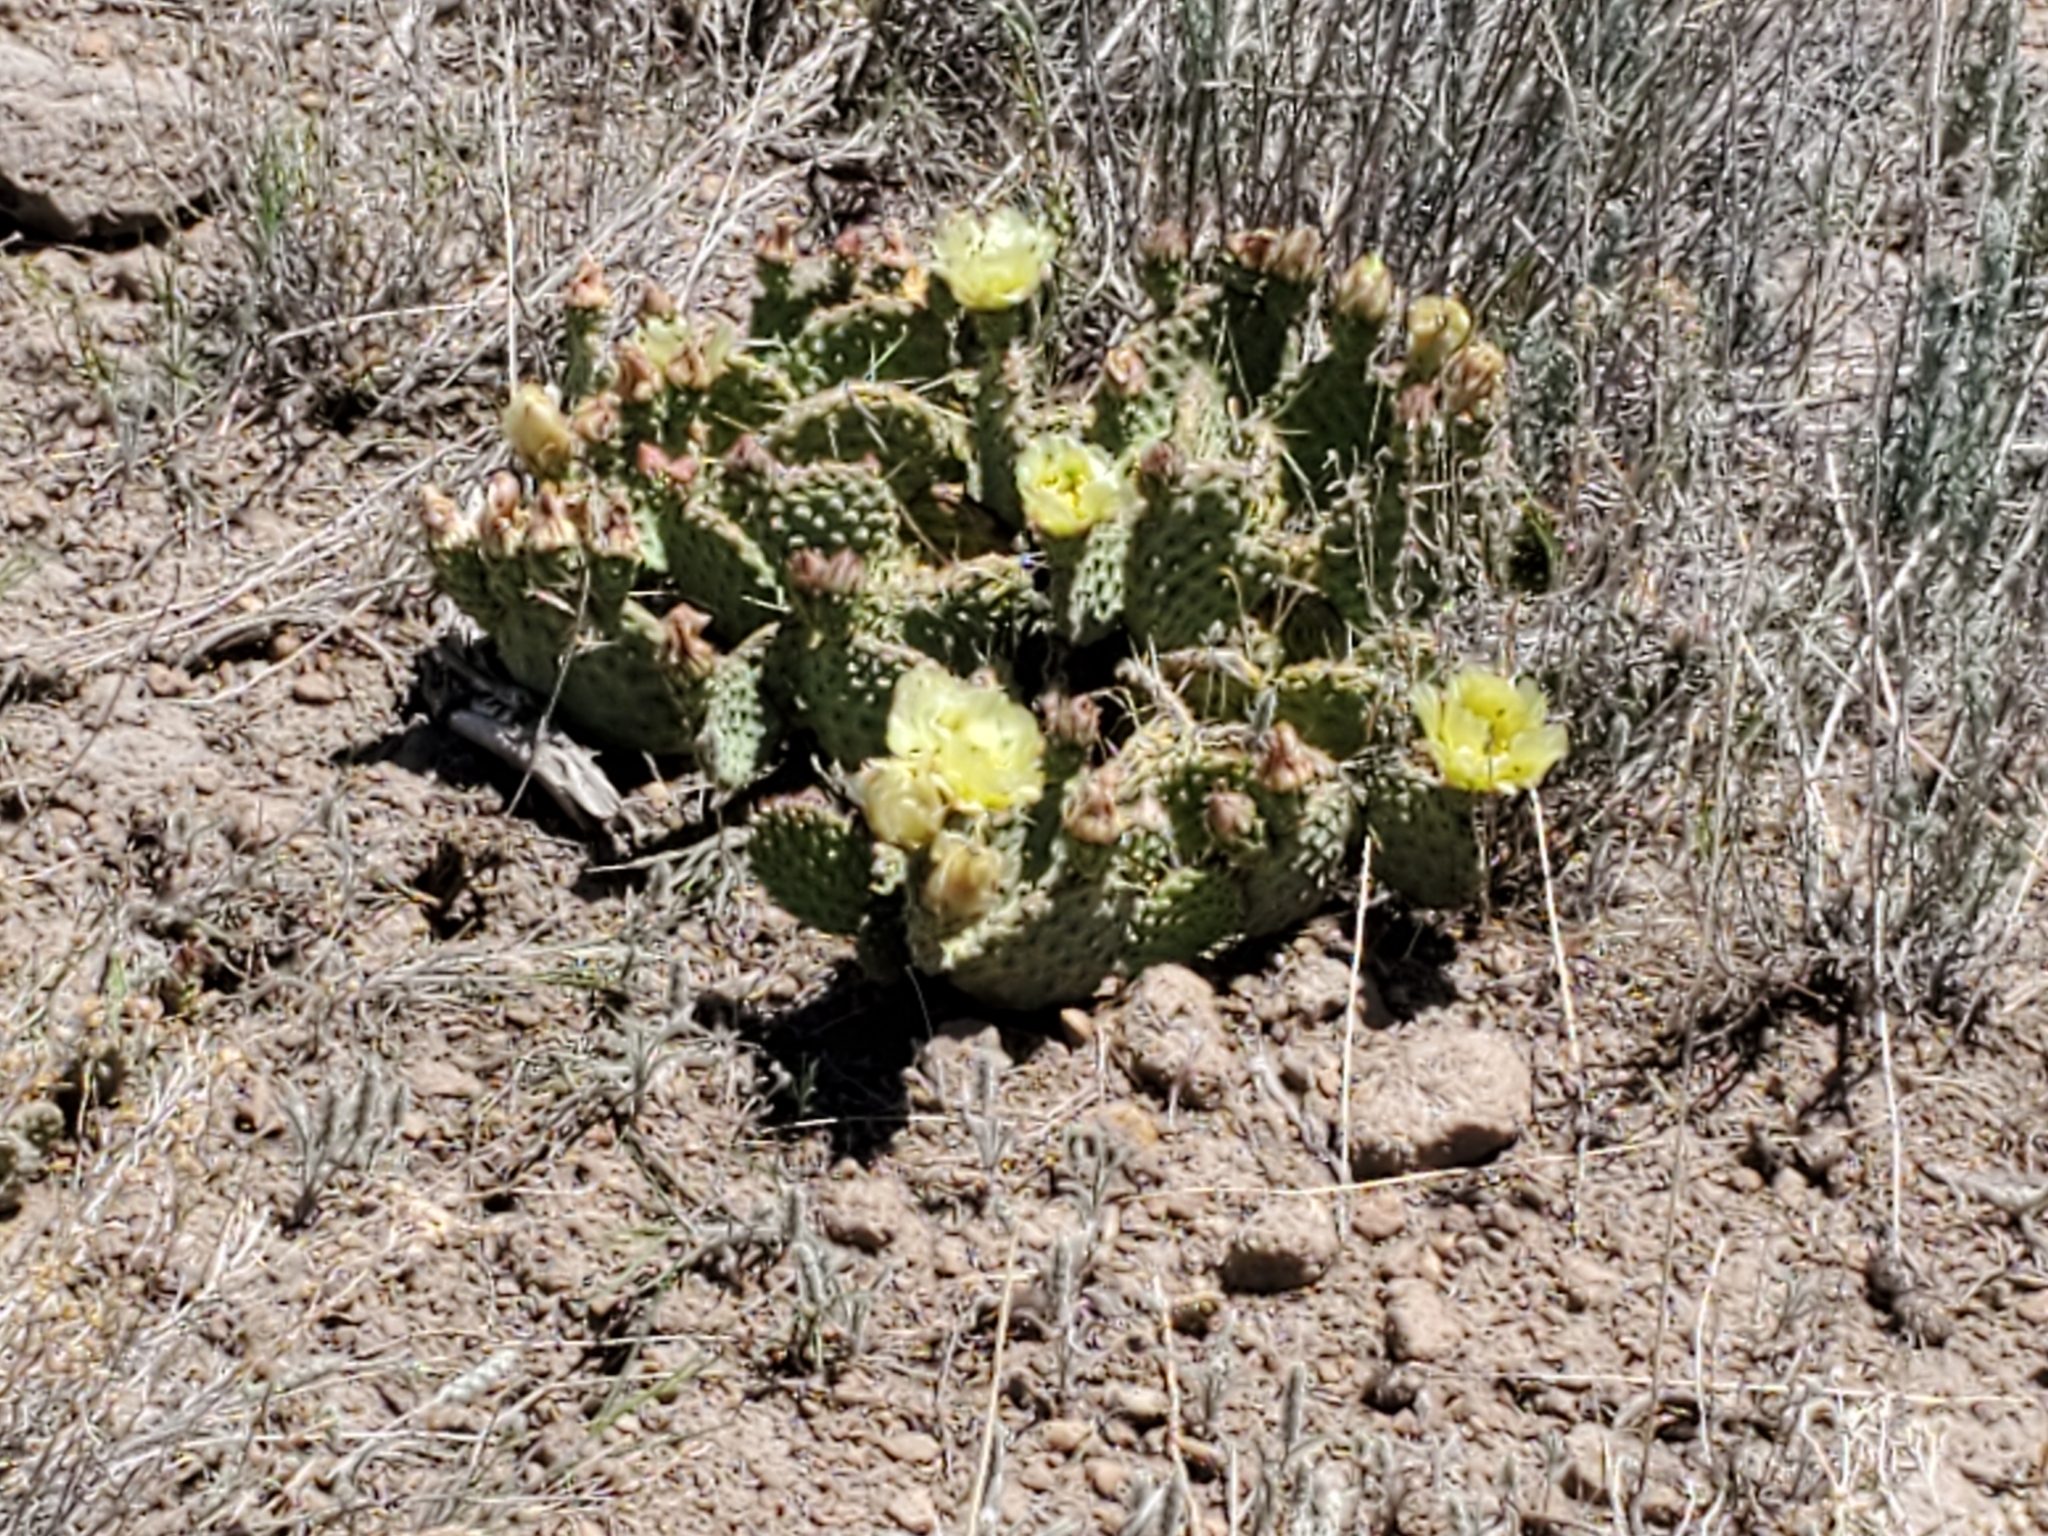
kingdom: Plantae
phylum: Tracheophyta
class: Magnoliopsida
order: Caryophyllales
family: Cactaceae
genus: Opuntia
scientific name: Opuntia polyacantha
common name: Plains prickly-pear
